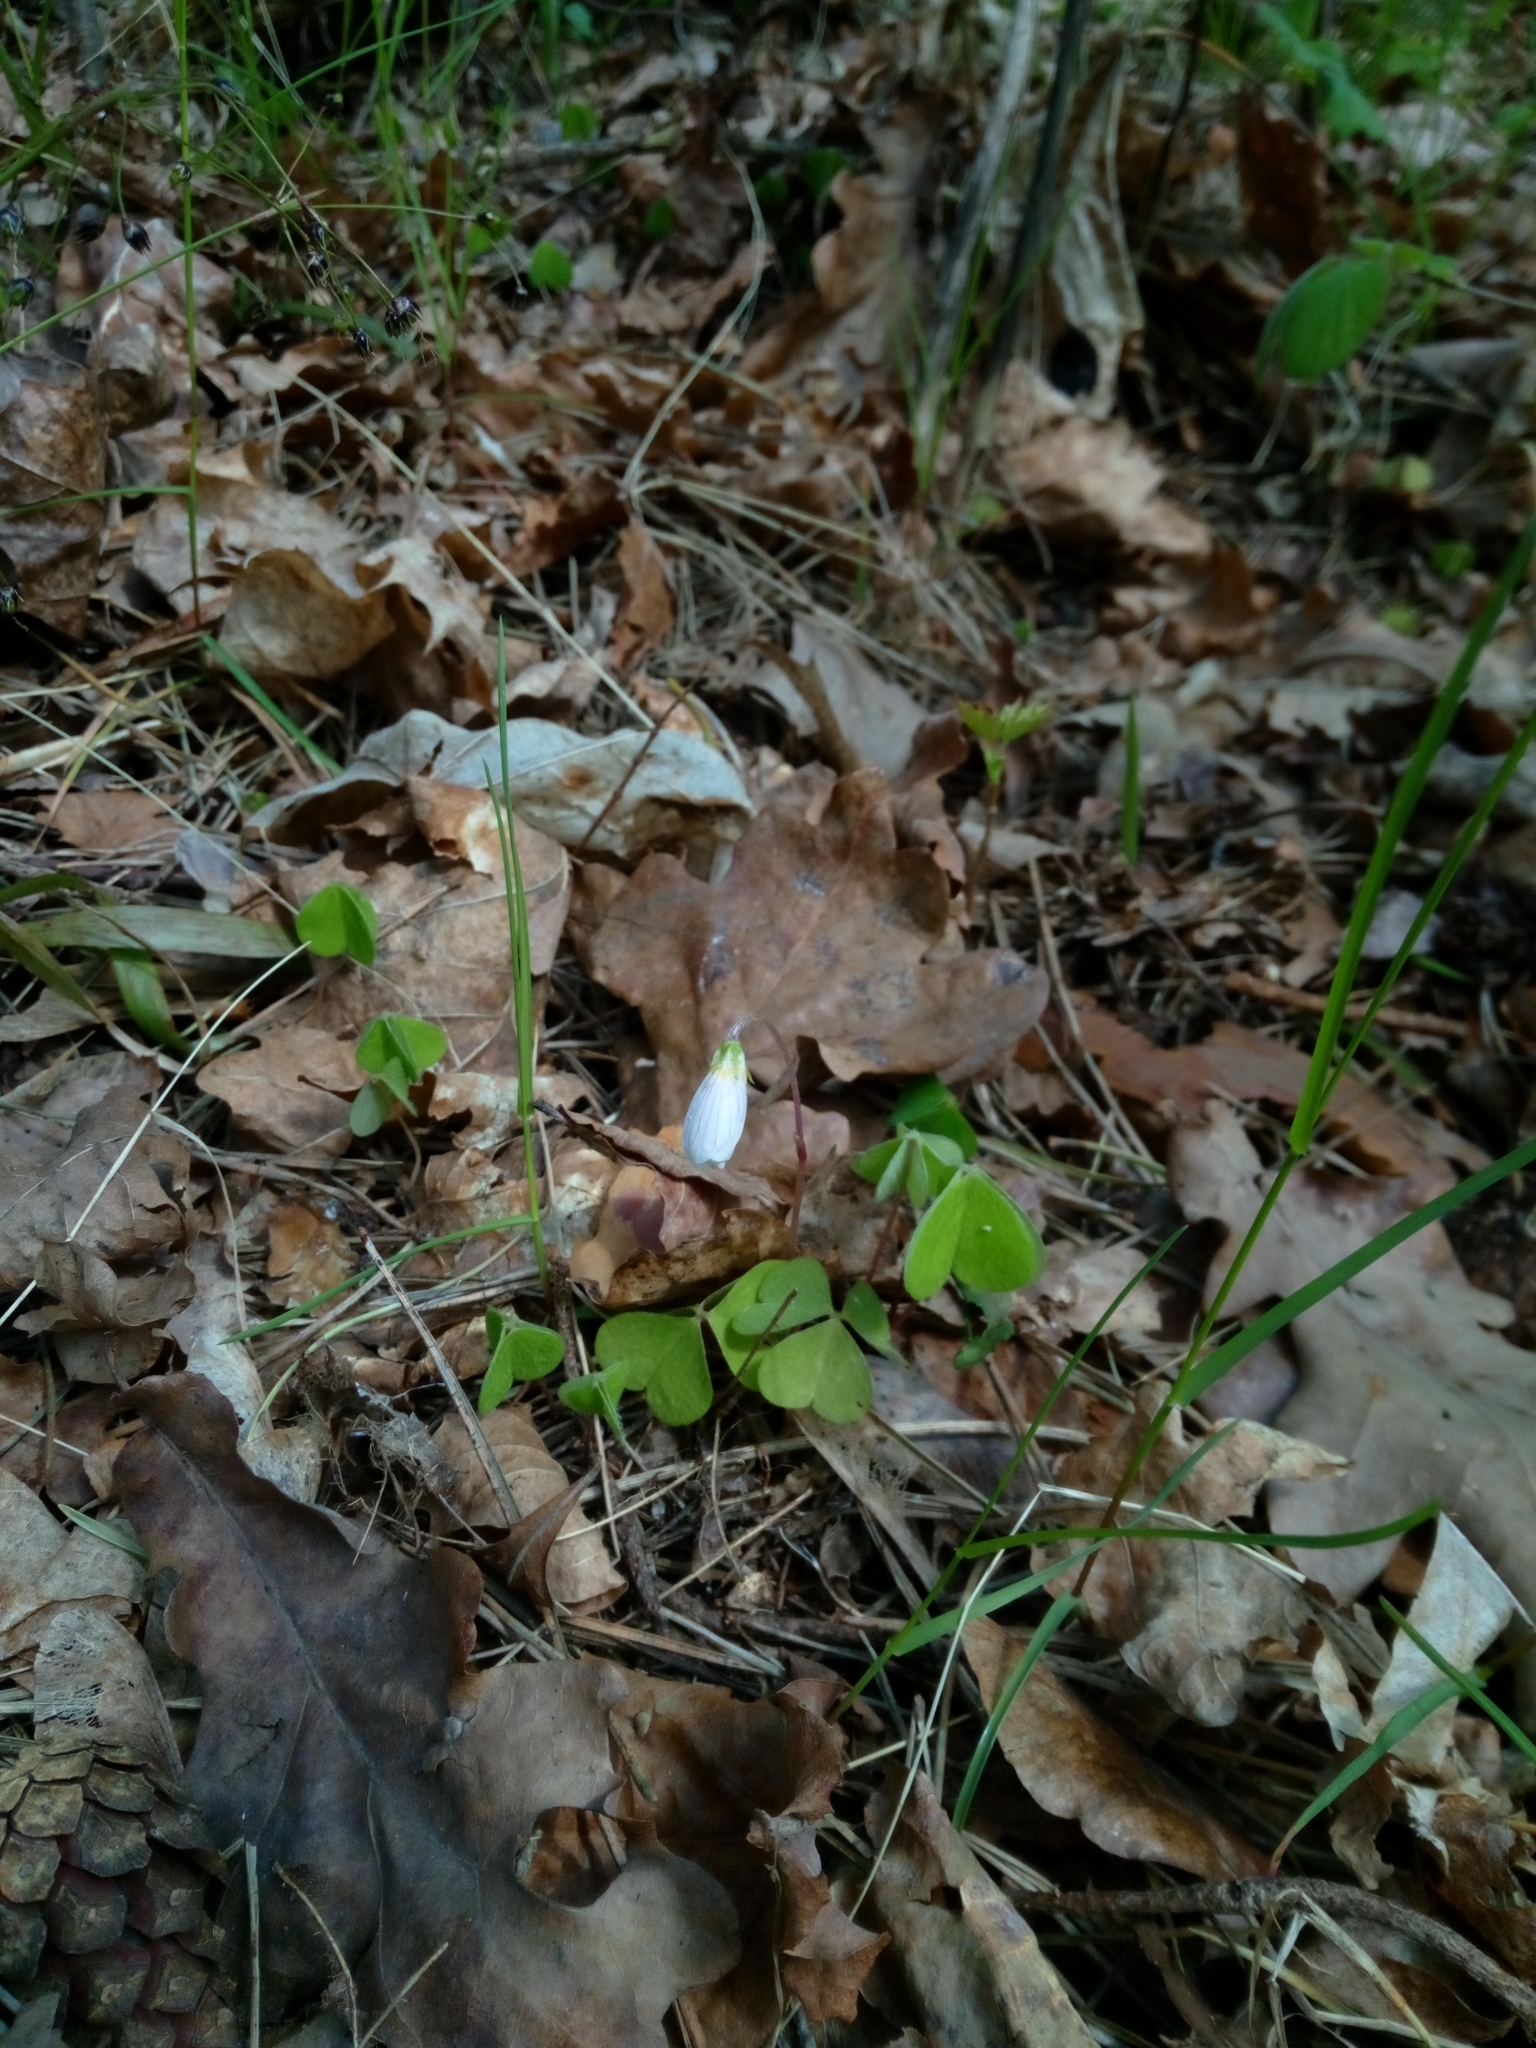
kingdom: Plantae
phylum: Tracheophyta
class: Magnoliopsida
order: Oxalidales
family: Oxalidaceae
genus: Oxalis
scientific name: Oxalis acetosella
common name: Wood-sorrel
